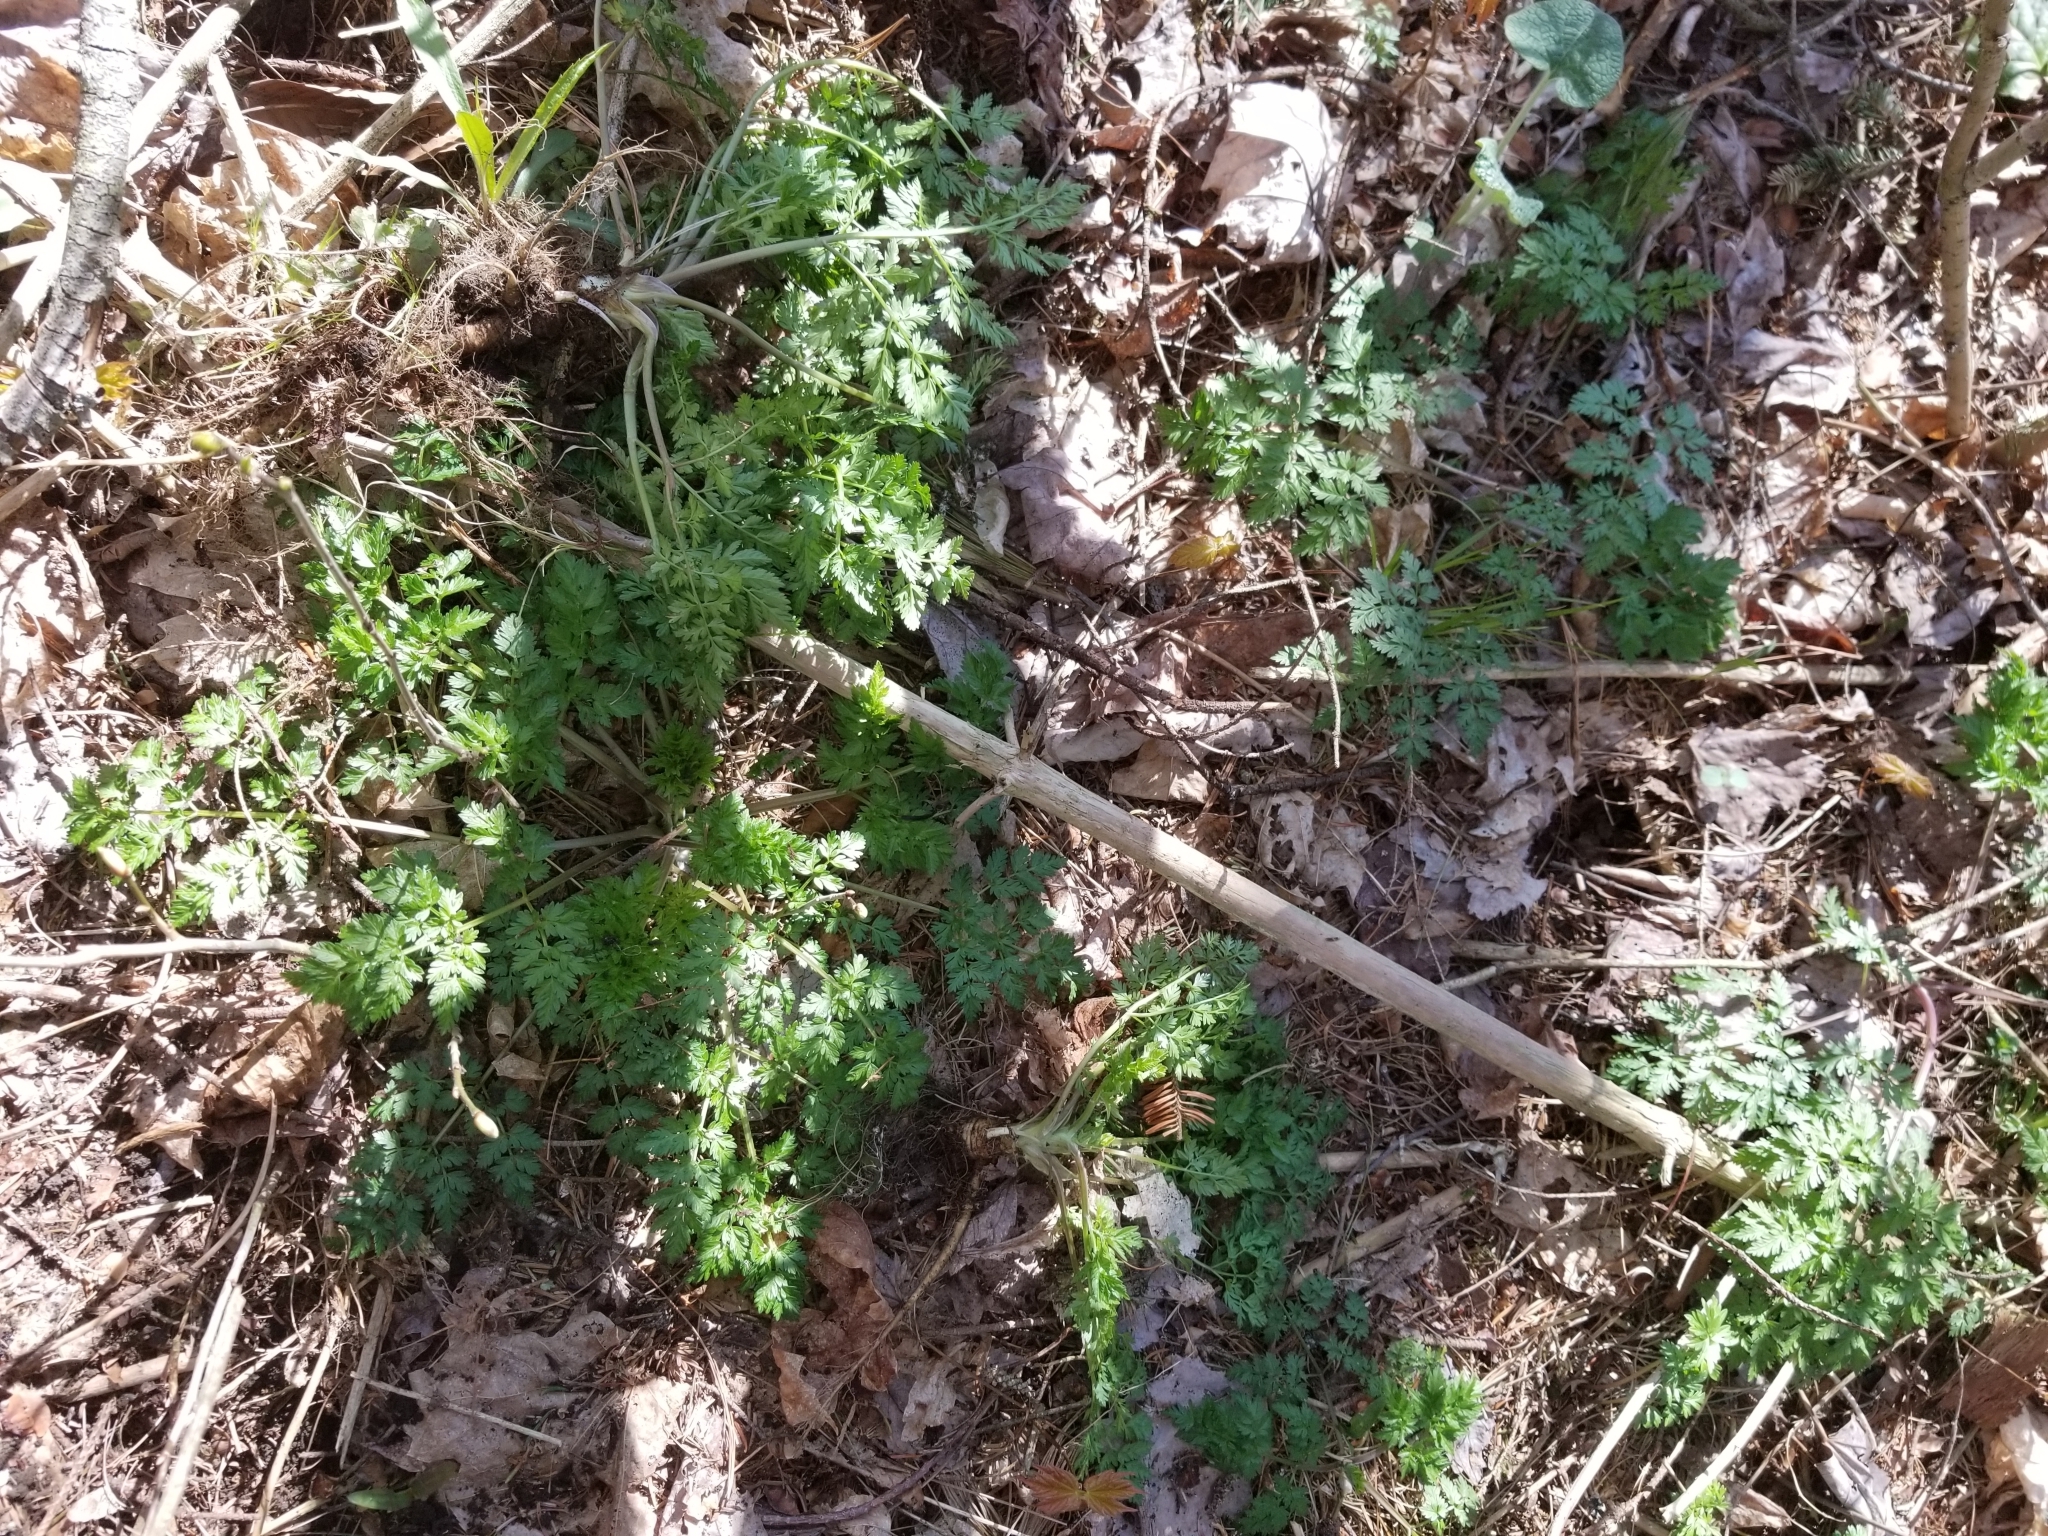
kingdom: Plantae
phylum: Tracheophyta
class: Magnoliopsida
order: Apiales
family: Apiaceae
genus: Anthriscus
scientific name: Anthriscus sylvestris
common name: Cow parsley
